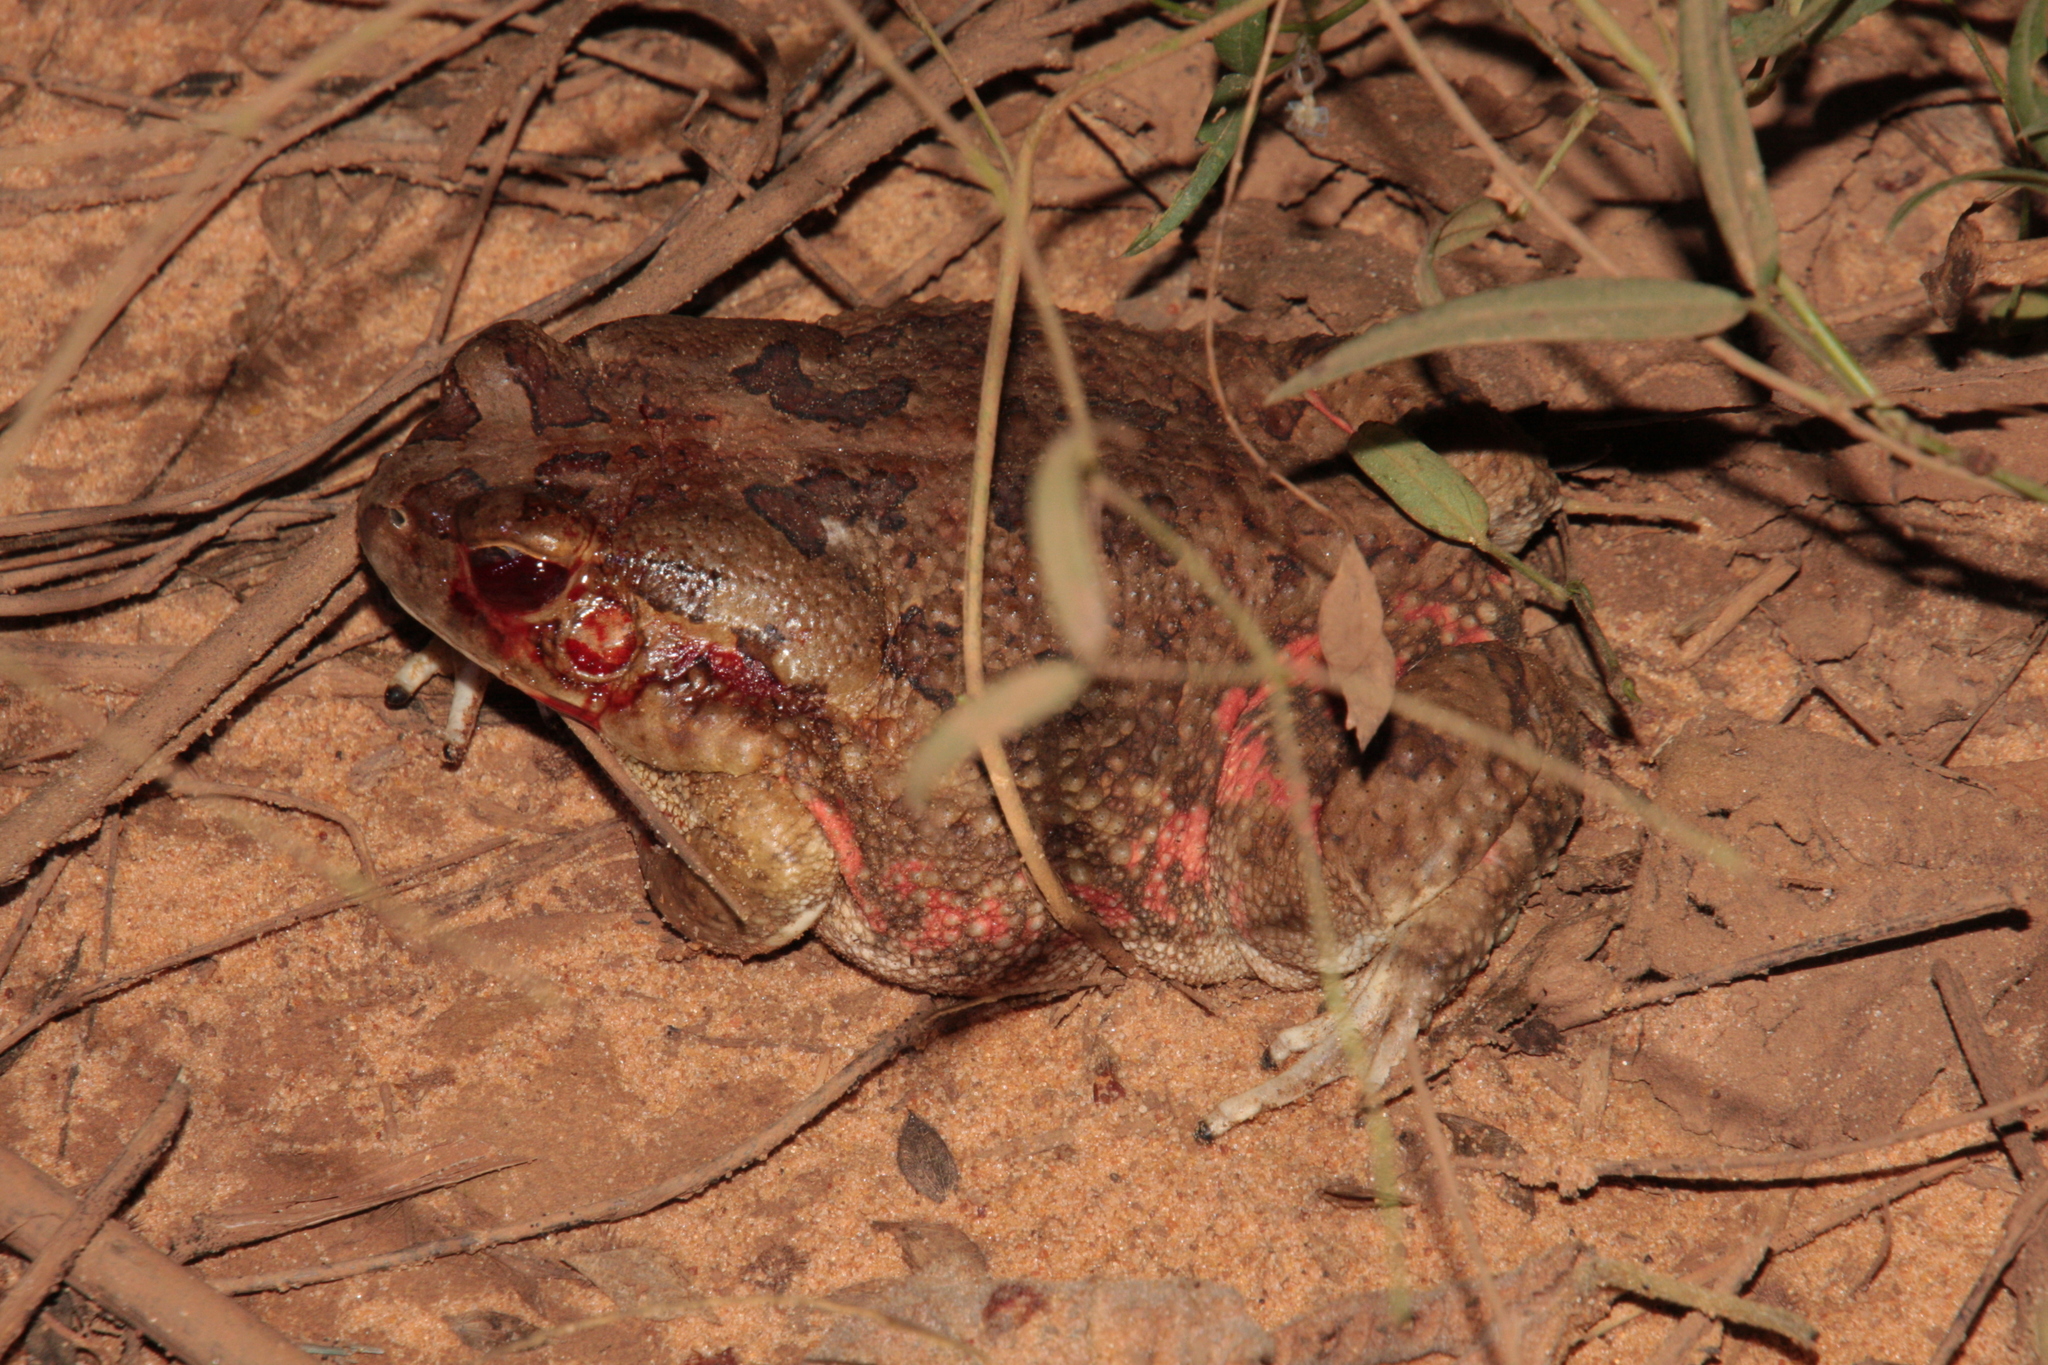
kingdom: Animalia
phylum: Chordata
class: Amphibia
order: Anura
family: Bufonidae
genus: Sclerophrys
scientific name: Sclerophrys xeros
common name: Subdesert toad
